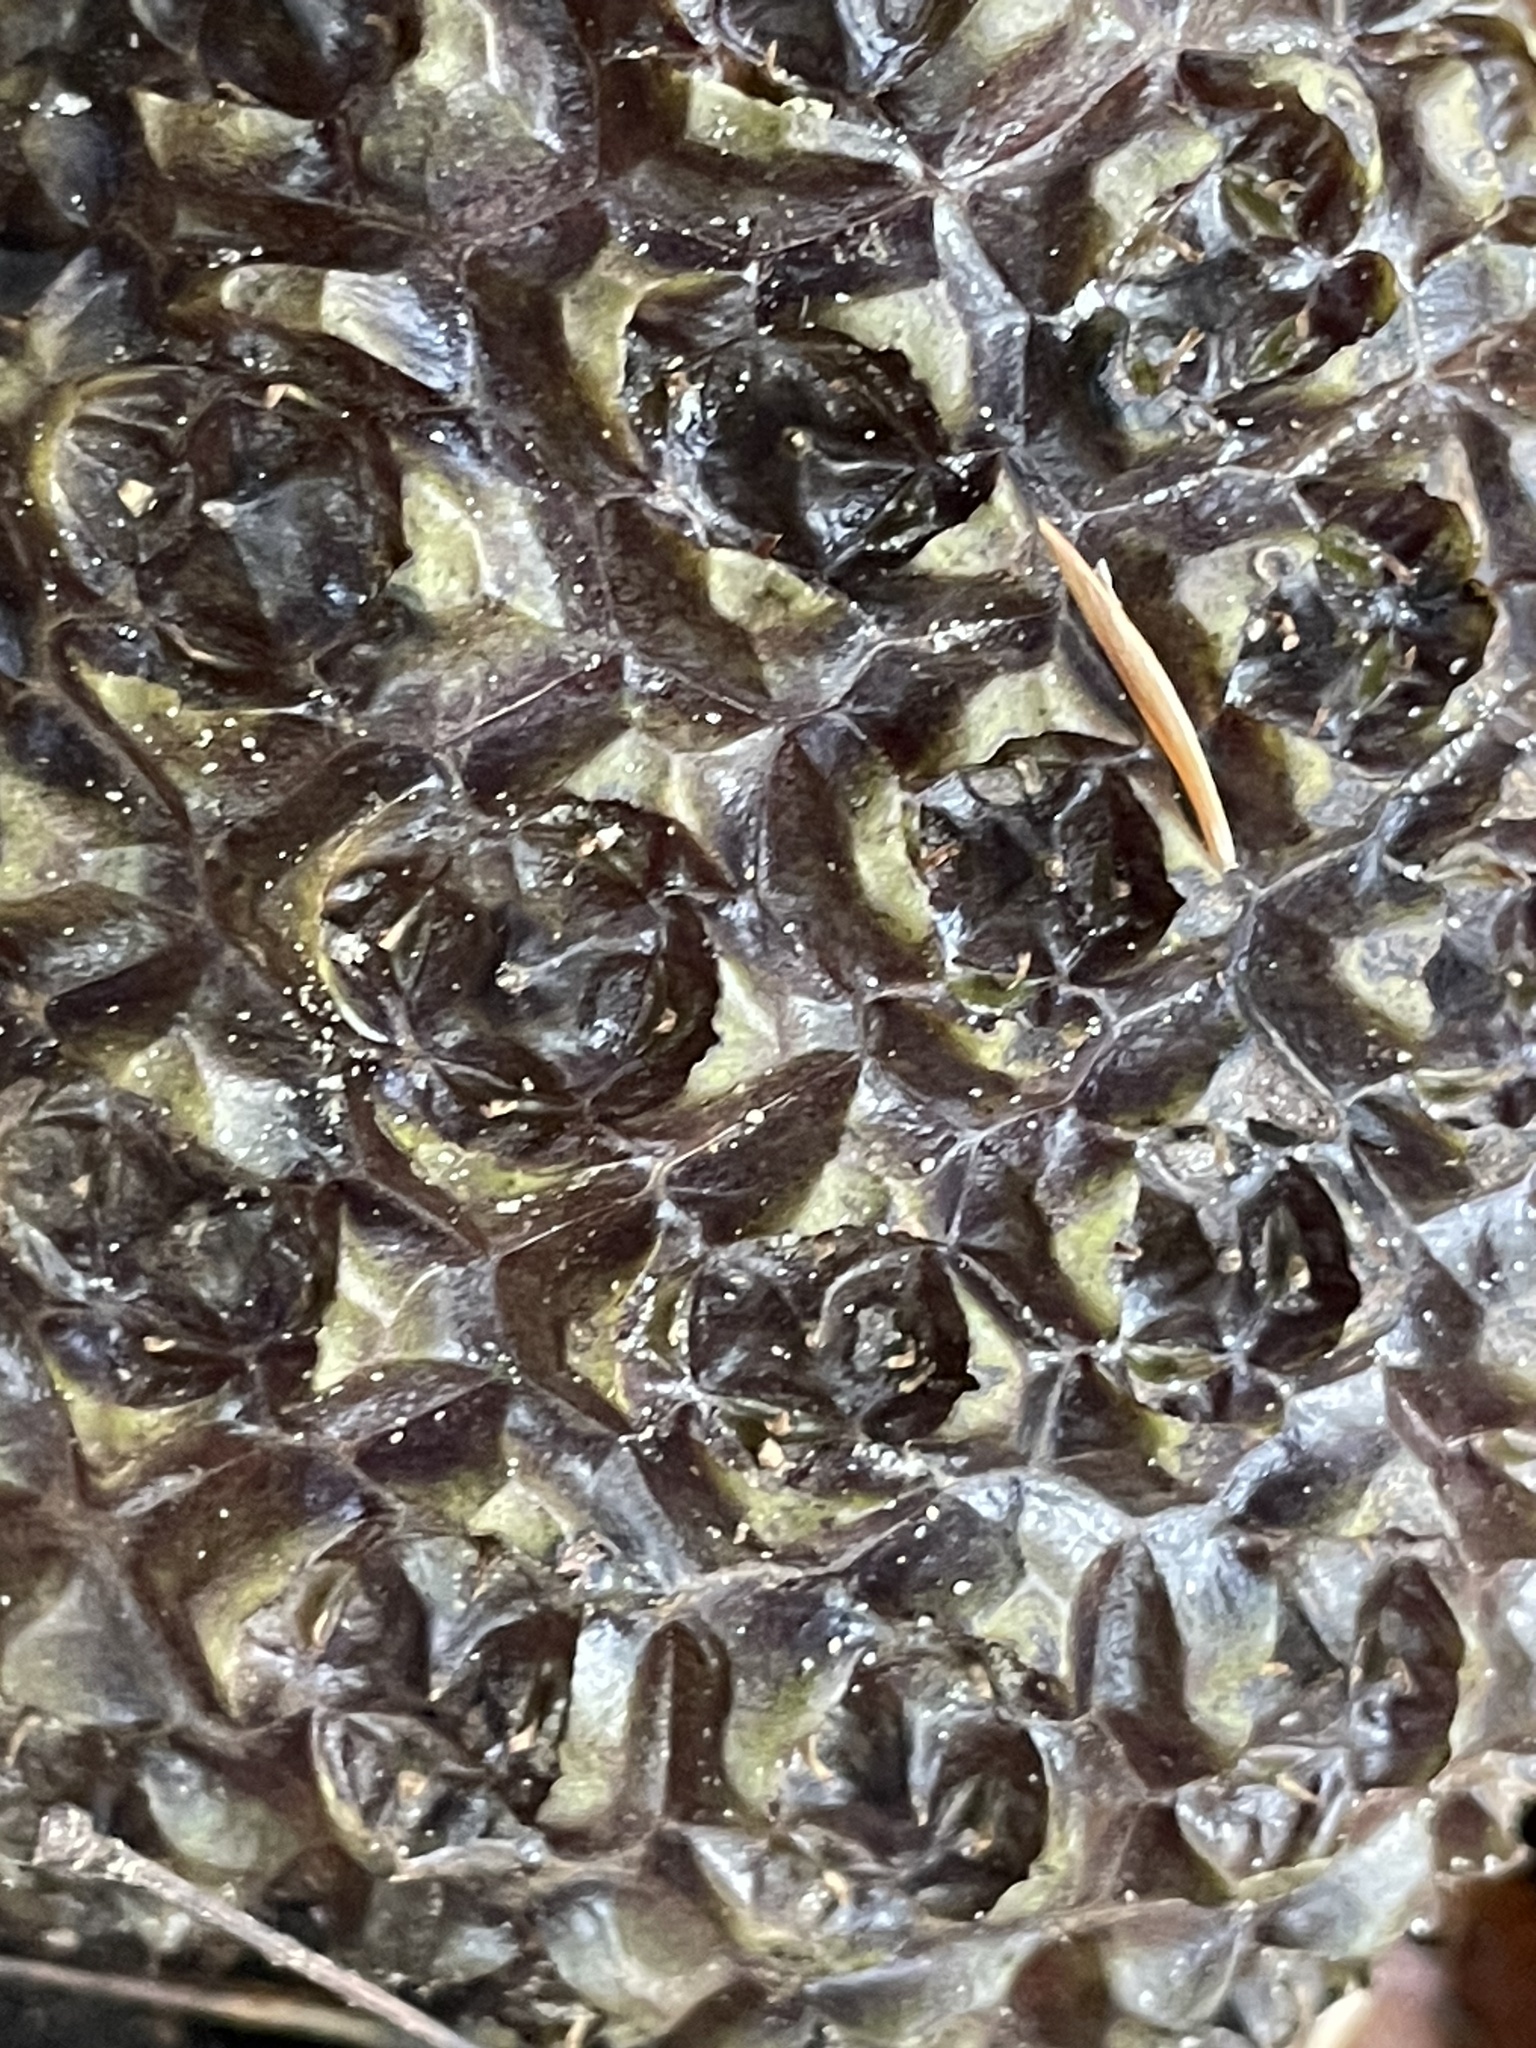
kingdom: Plantae
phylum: Tracheophyta
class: Liliopsida
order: Alismatales
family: Araceae
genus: Symplocarpus
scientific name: Symplocarpus foetidus
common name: Eastern skunk cabbage
